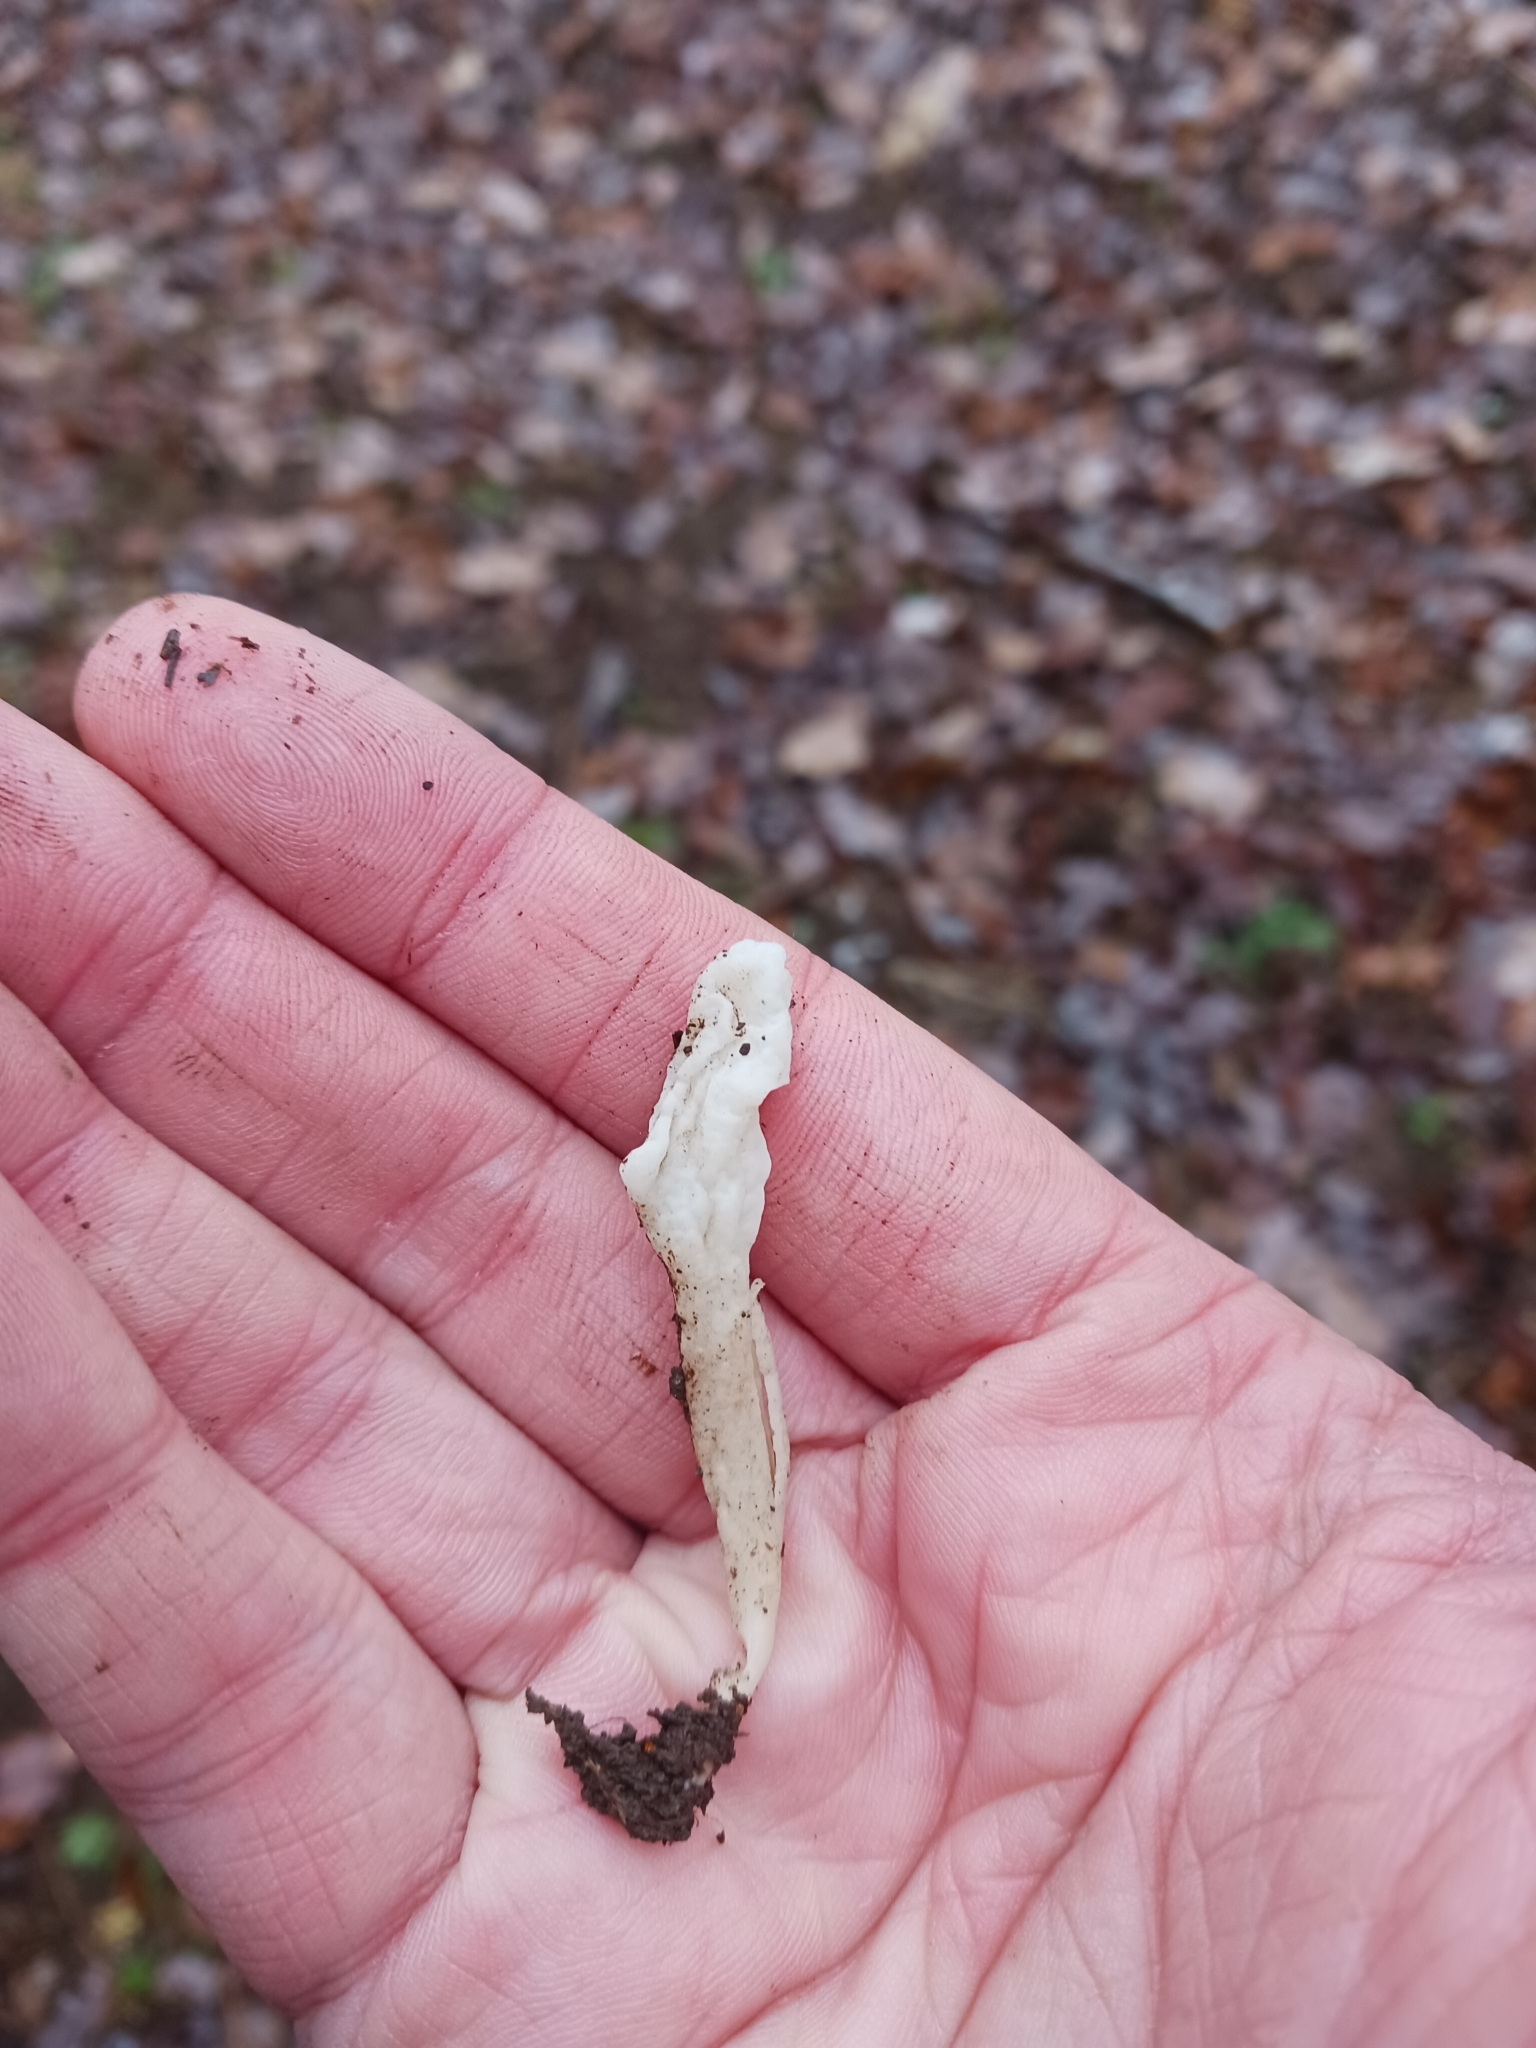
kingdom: Fungi
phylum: Basidiomycota
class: Agaricomycetes
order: Cantharellales
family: Hydnaceae
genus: Clavulina
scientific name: Clavulina rugosa
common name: Wrinkled club
